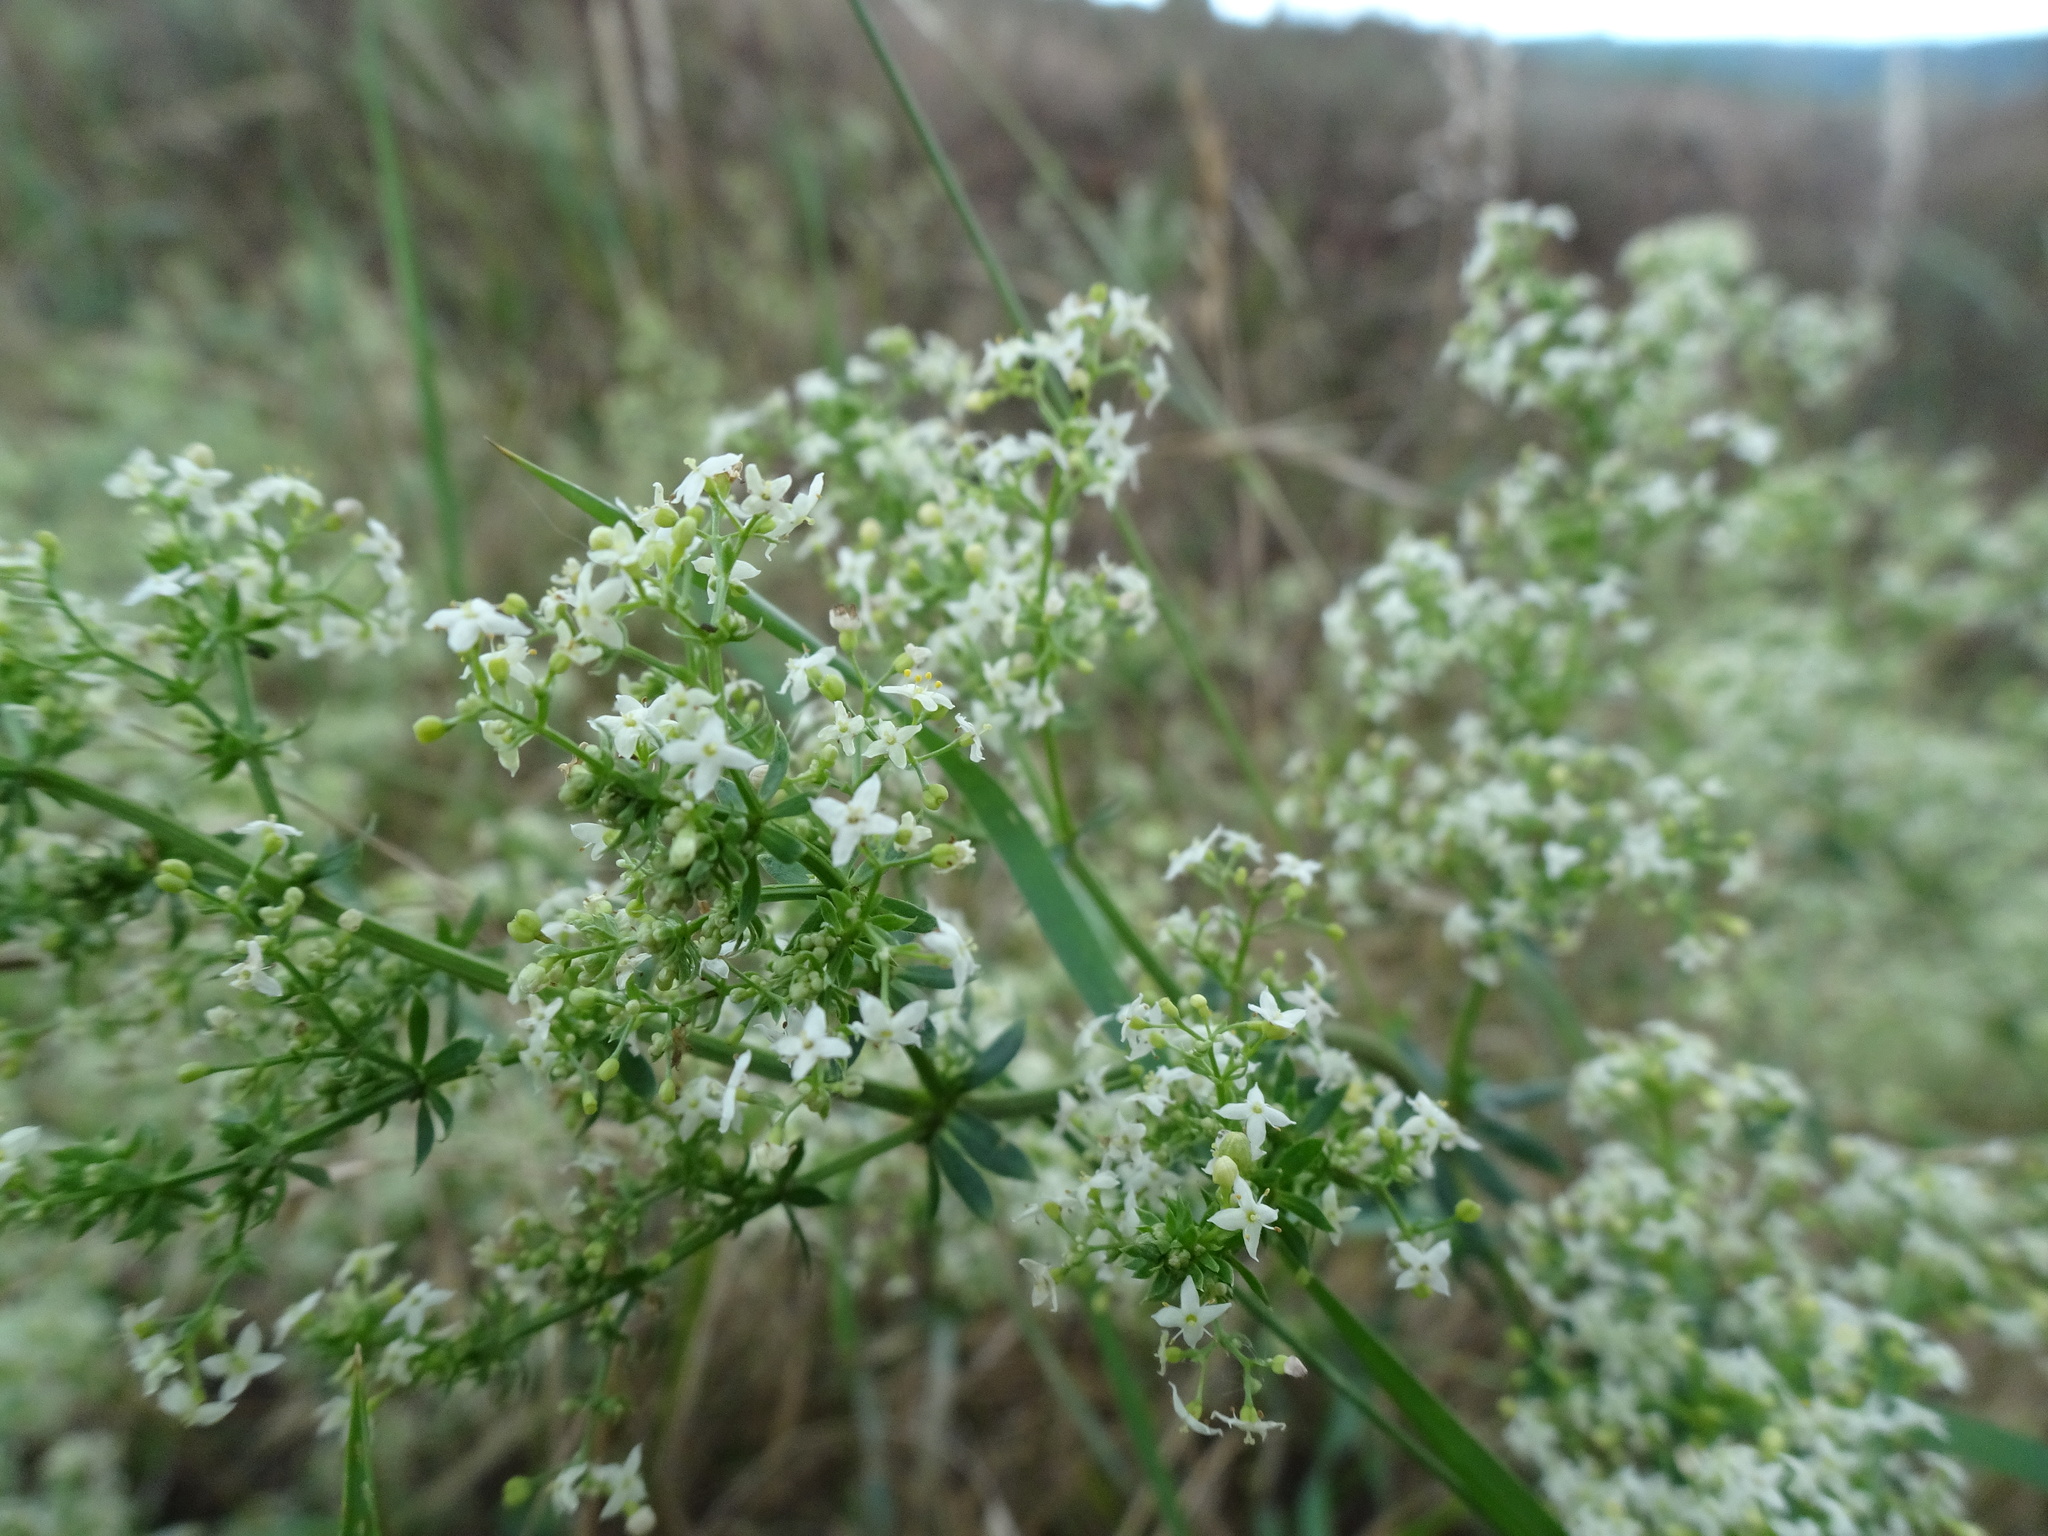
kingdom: Plantae
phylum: Tracheophyta
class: Magnoliopsida
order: Gentianales
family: Rubiaceae
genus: Galium
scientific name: Galium album
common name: White bedstraw
